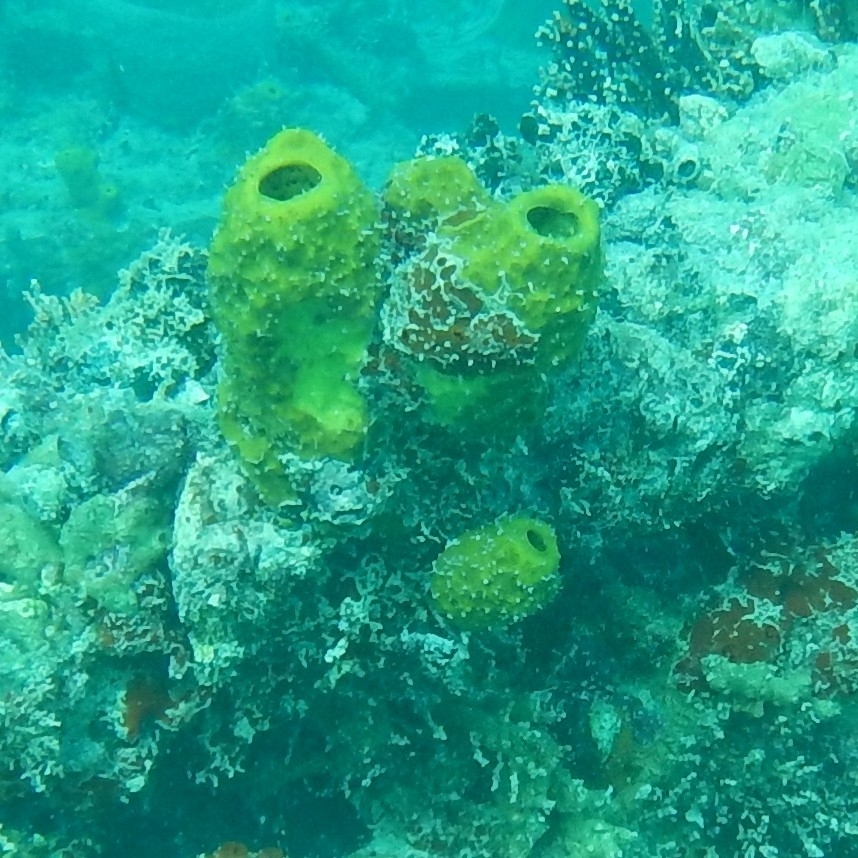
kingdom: Animalia
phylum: Porifera
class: Demospongiae
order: Verongiida
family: Aplysinidae
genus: Aplysina
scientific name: Aplysina fistularis
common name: Candle sponge
